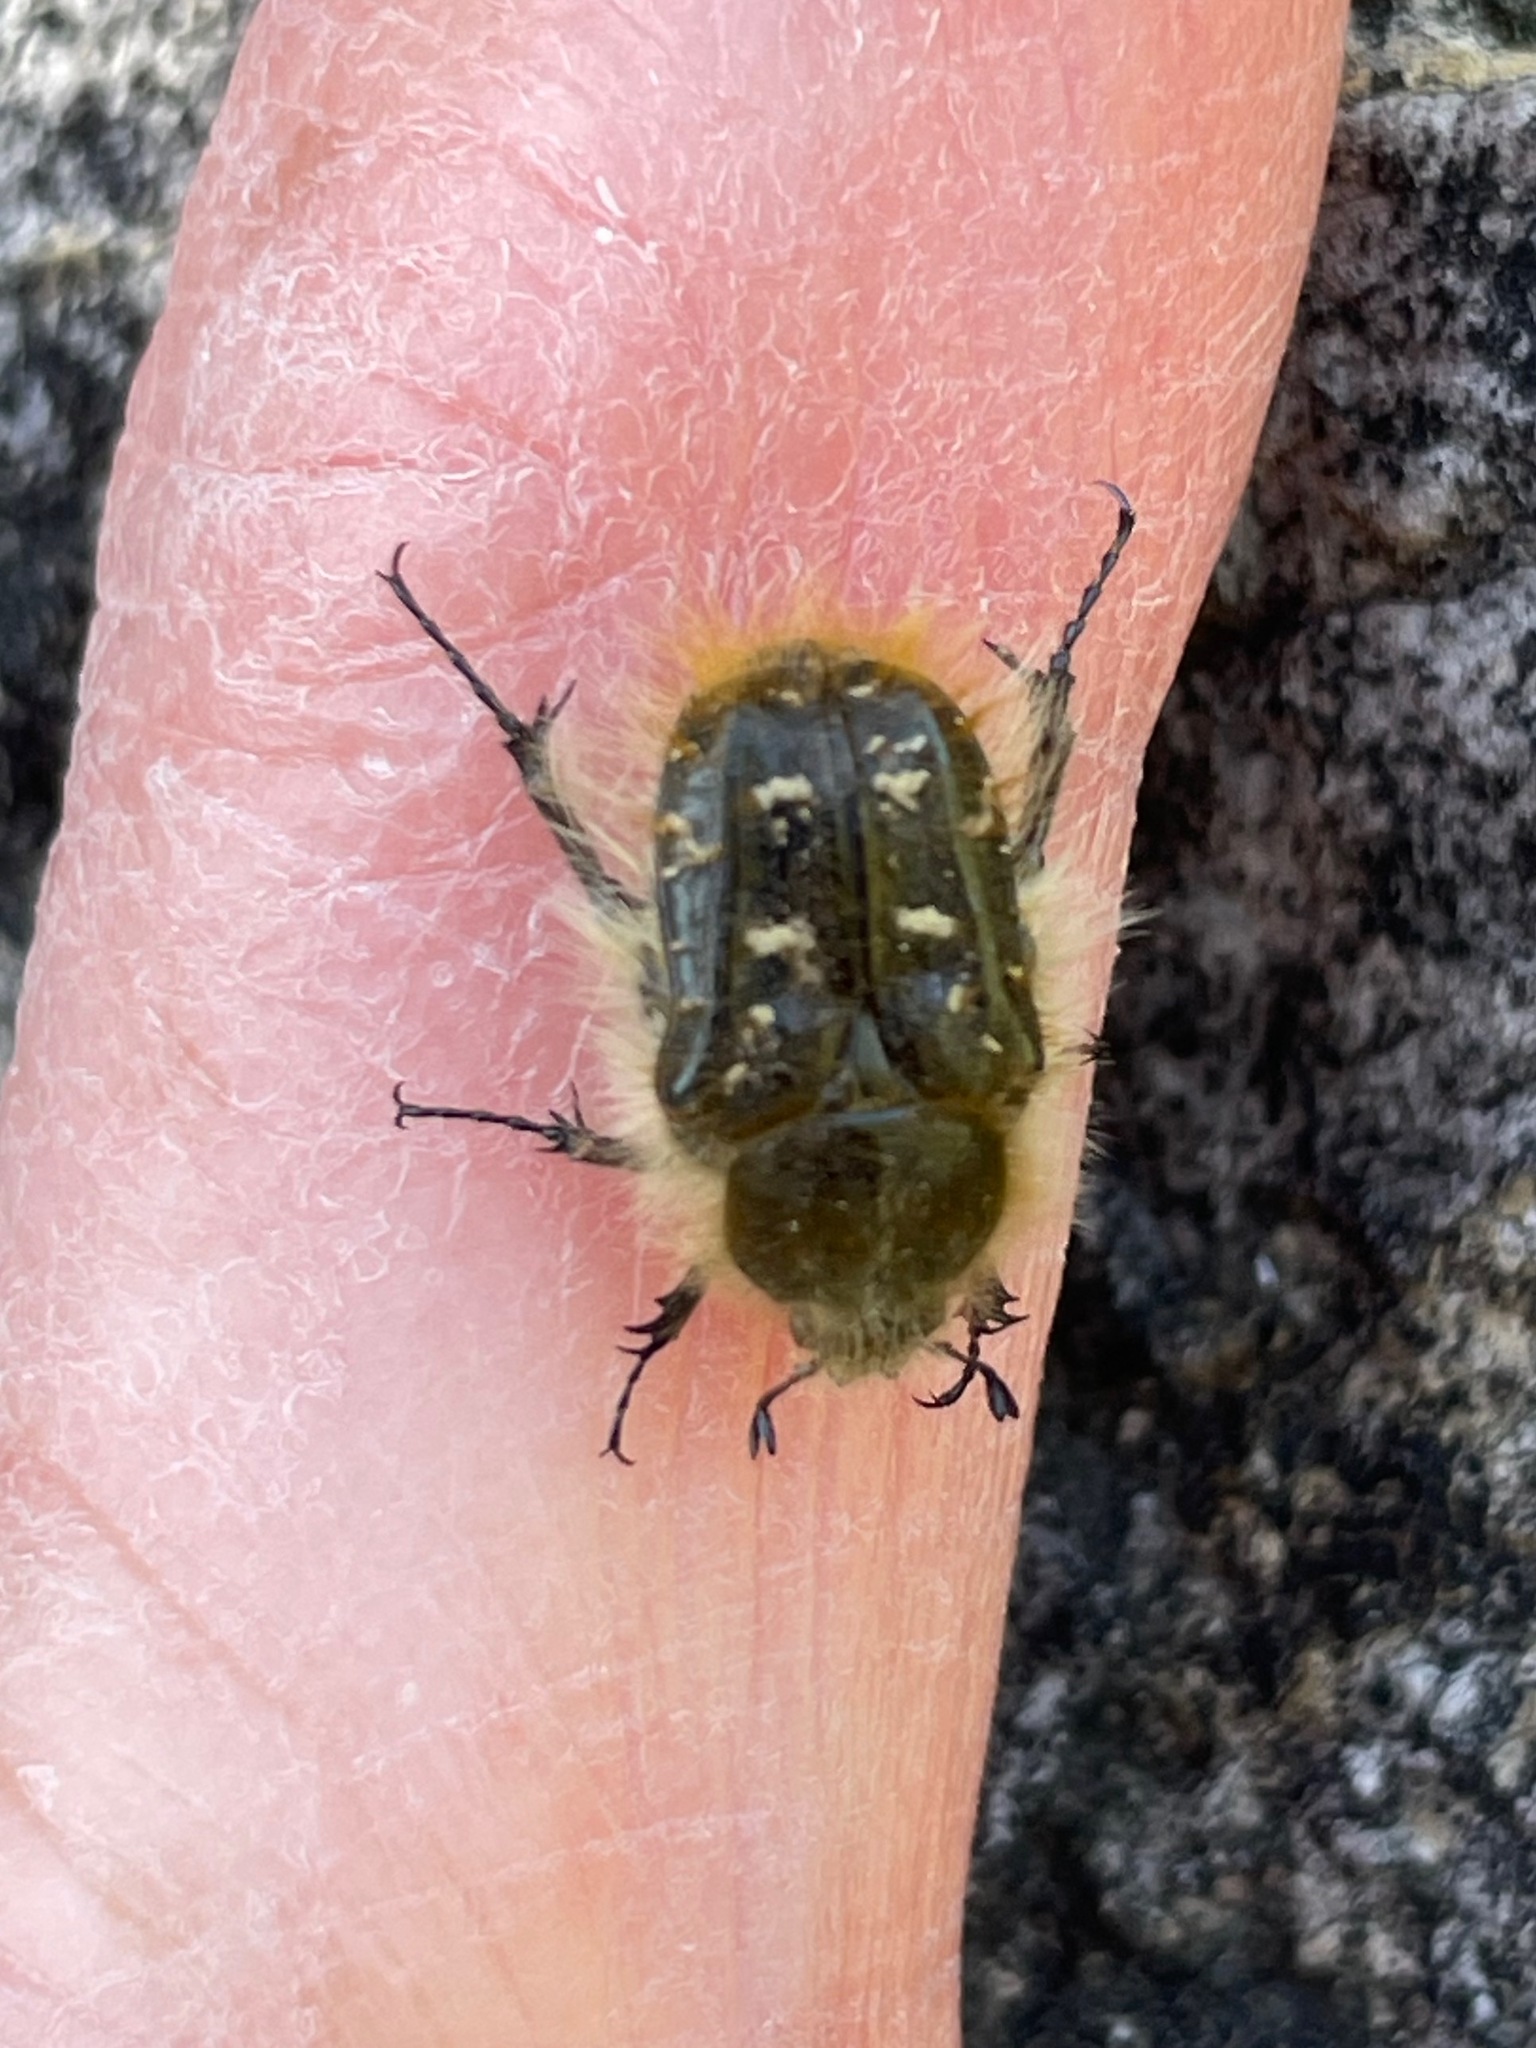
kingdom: Animalia
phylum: Arthropoda
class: Insecta
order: Coleoptera
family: Scarabaeidae
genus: Tropinota
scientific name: Tropinota squalida
